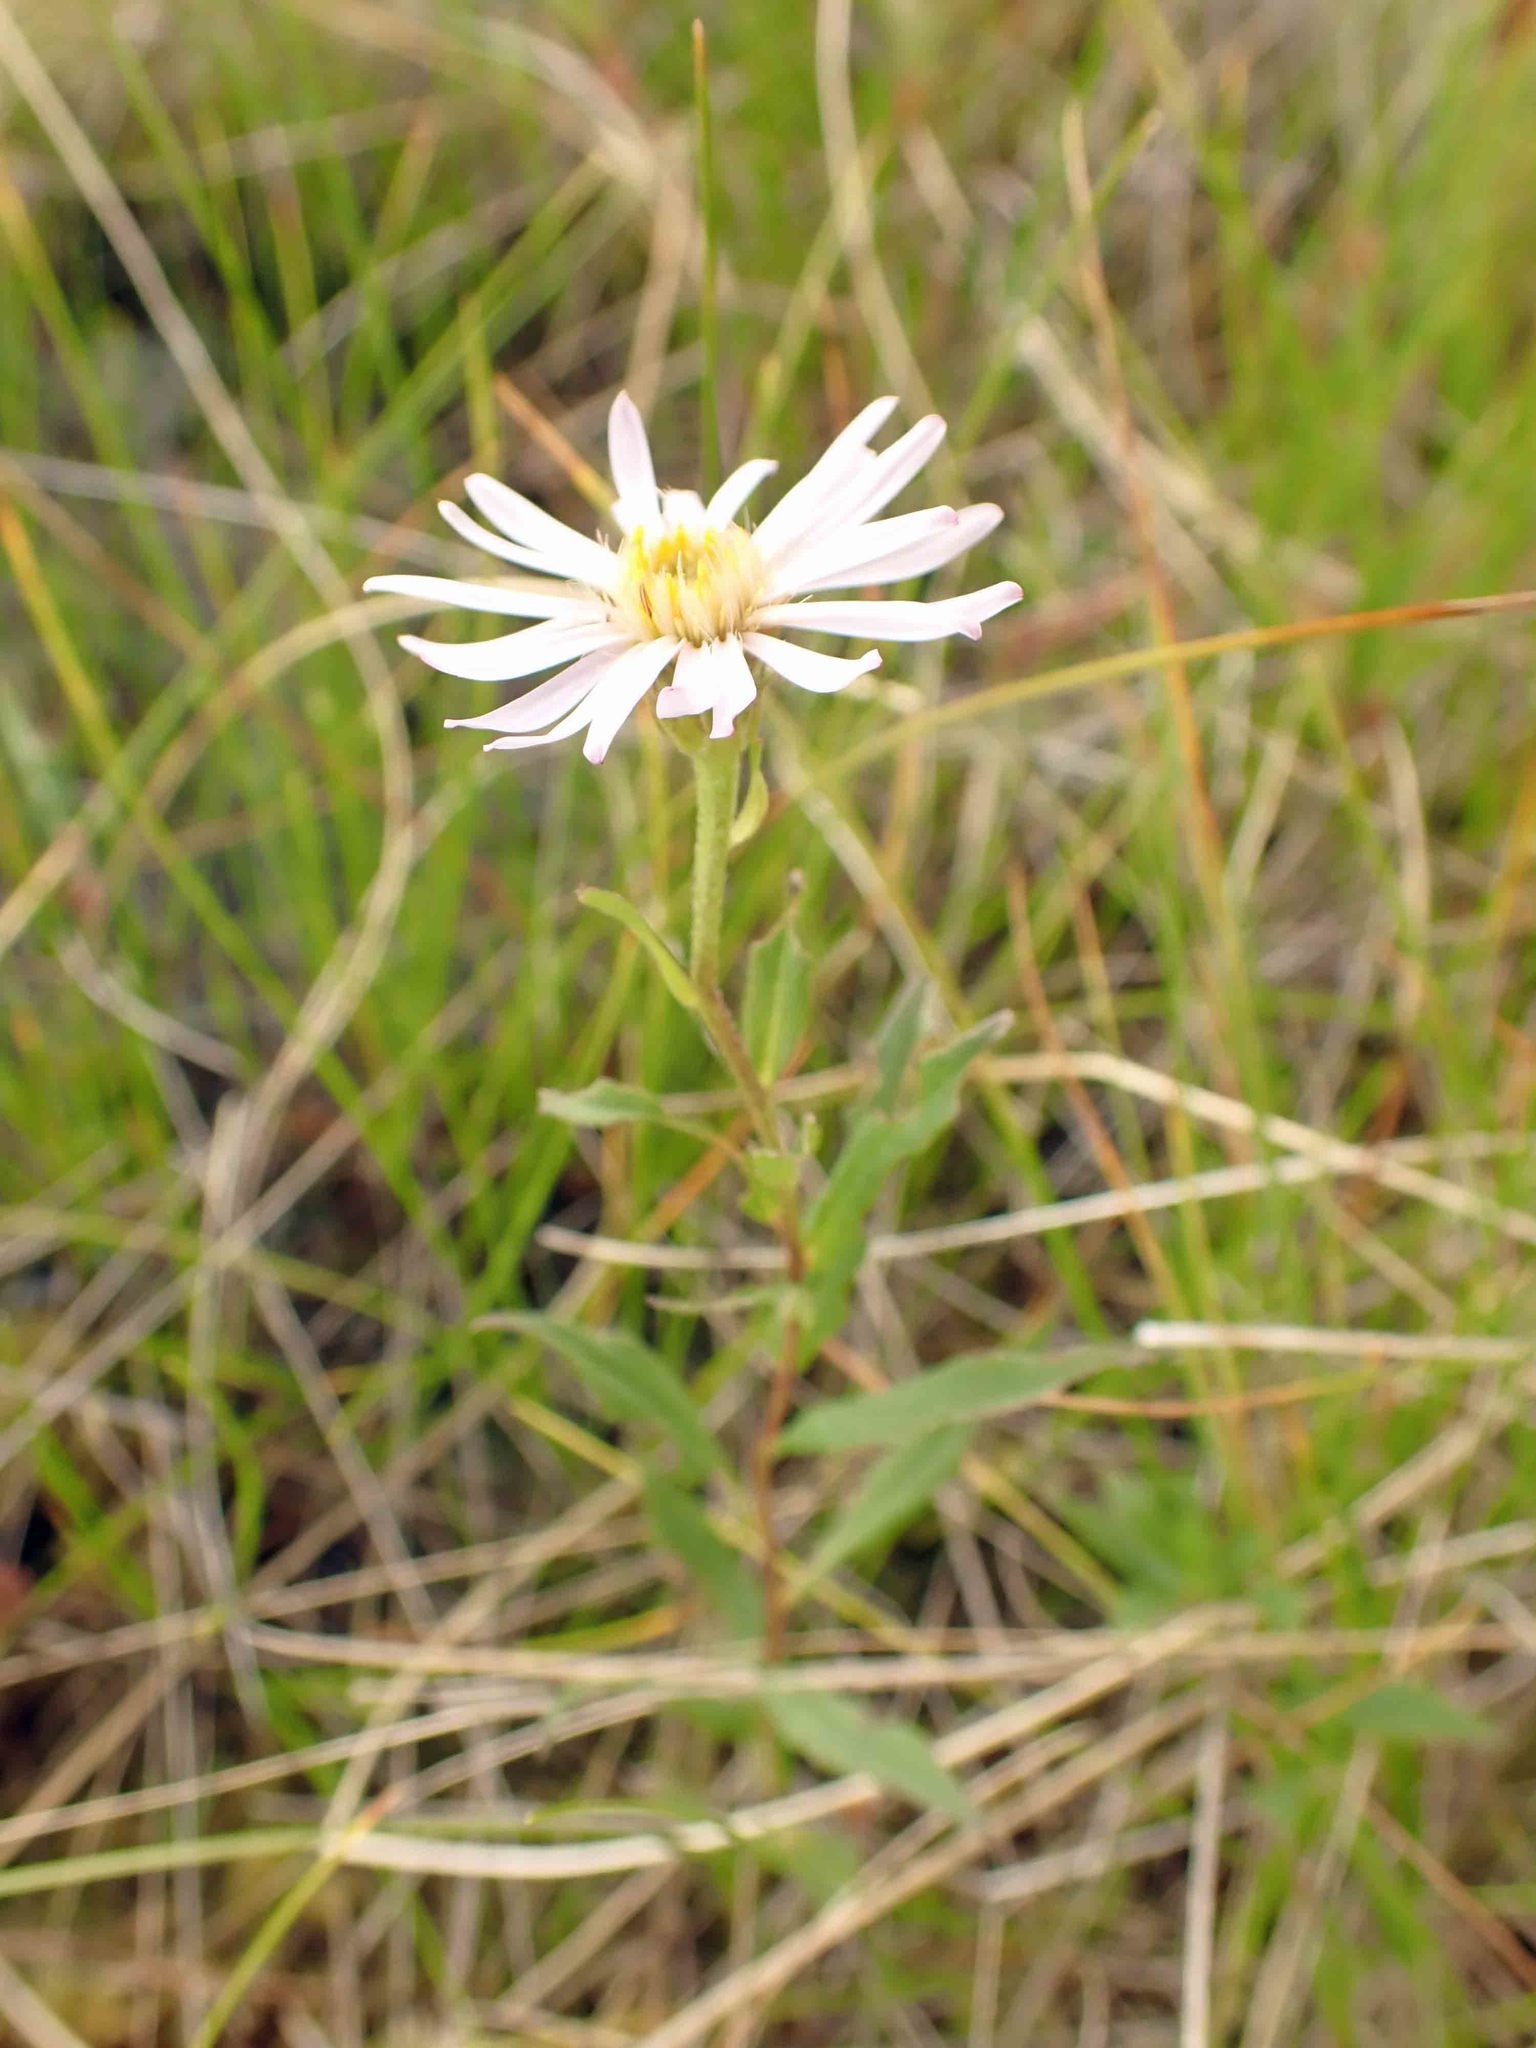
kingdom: Plantae
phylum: Tracheophyta
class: Magnoliopsida
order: Asterales
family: Asteraceae
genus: Oclemena
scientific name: Oclemena nemoralis
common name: Bog aster
